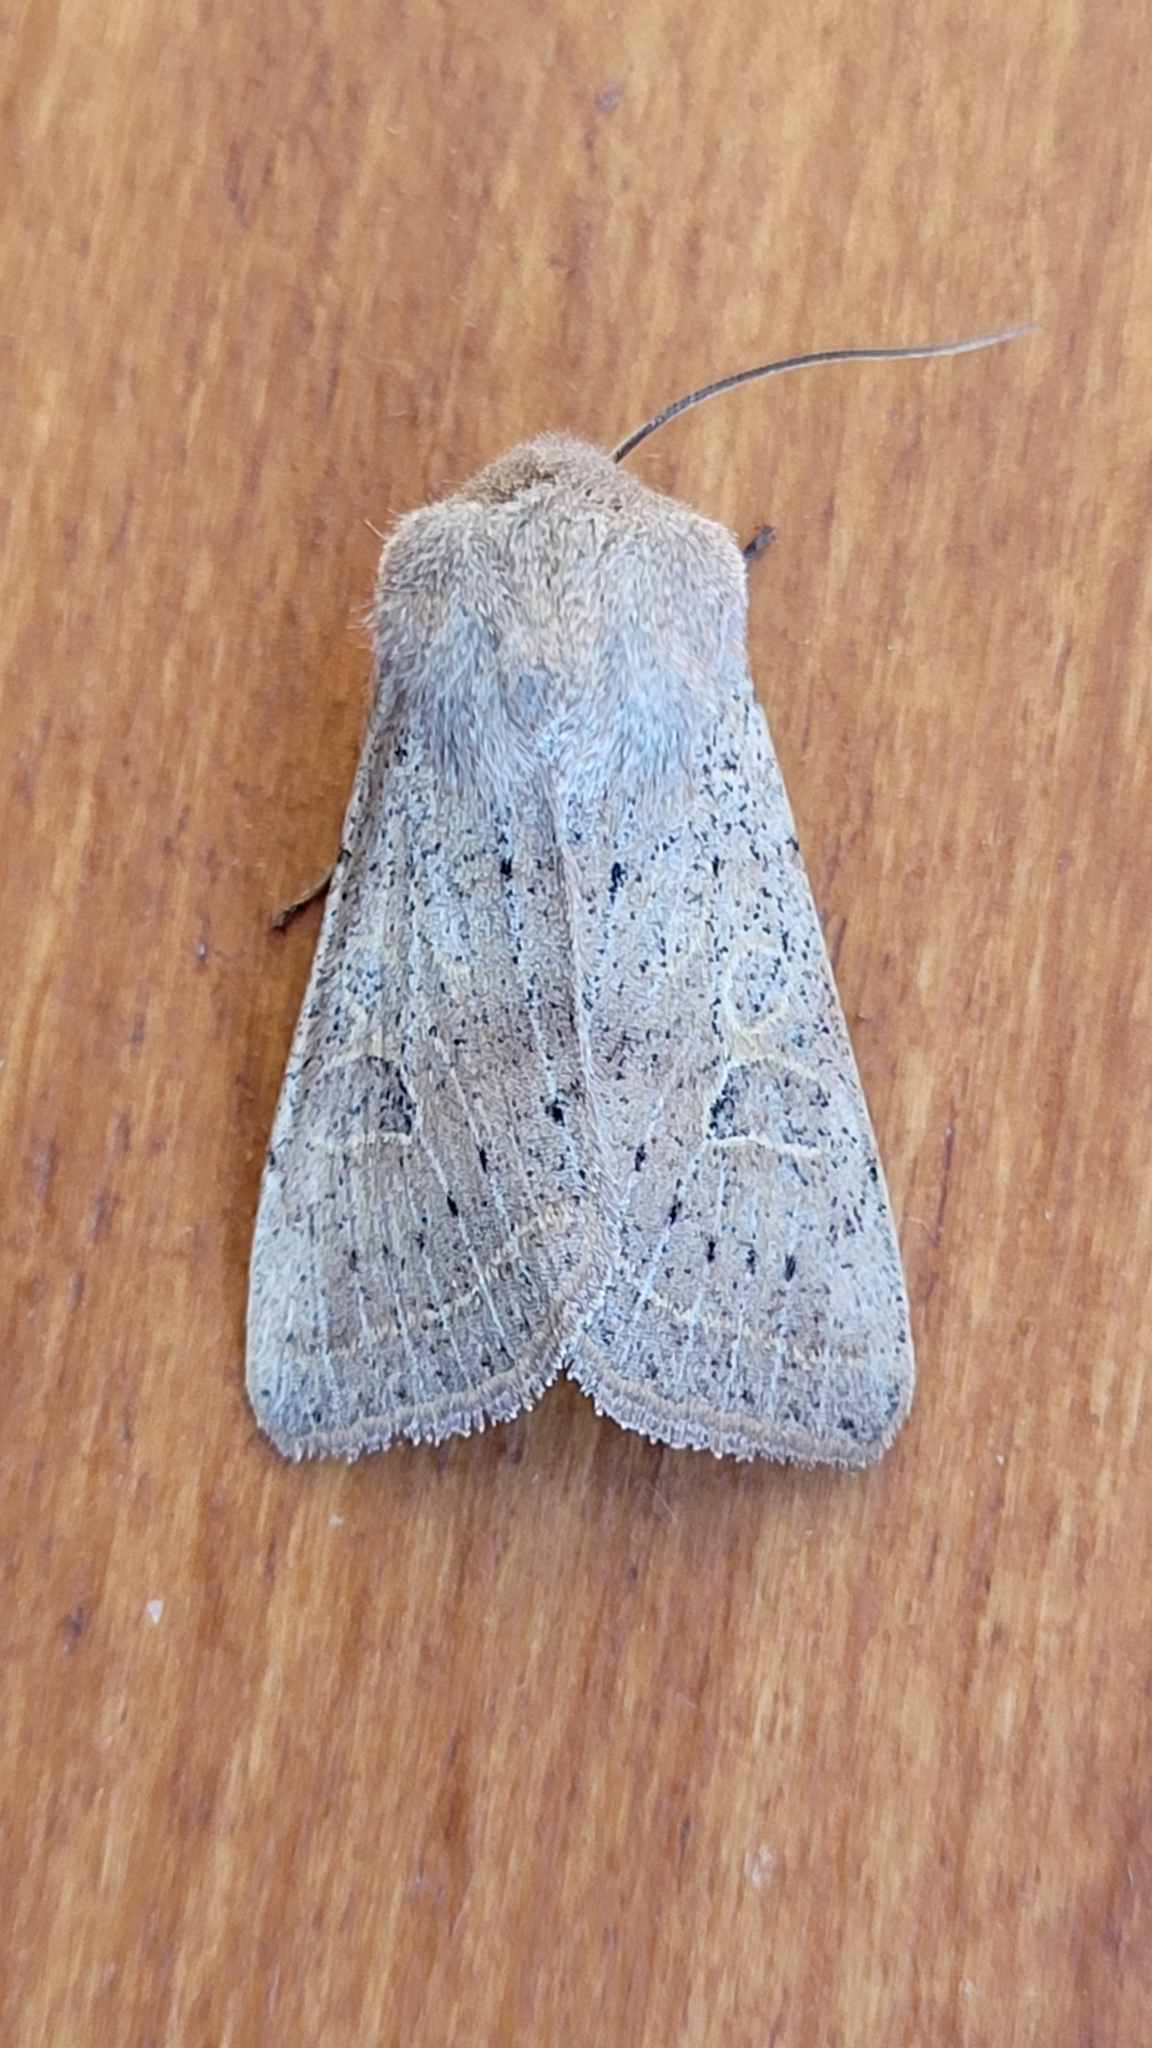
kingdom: Animalia
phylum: Arthropoda
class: Insecta
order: Lepidoptera
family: Noctuidae
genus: Orthosia
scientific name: Orthosia gracilis
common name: Powdered quaker
